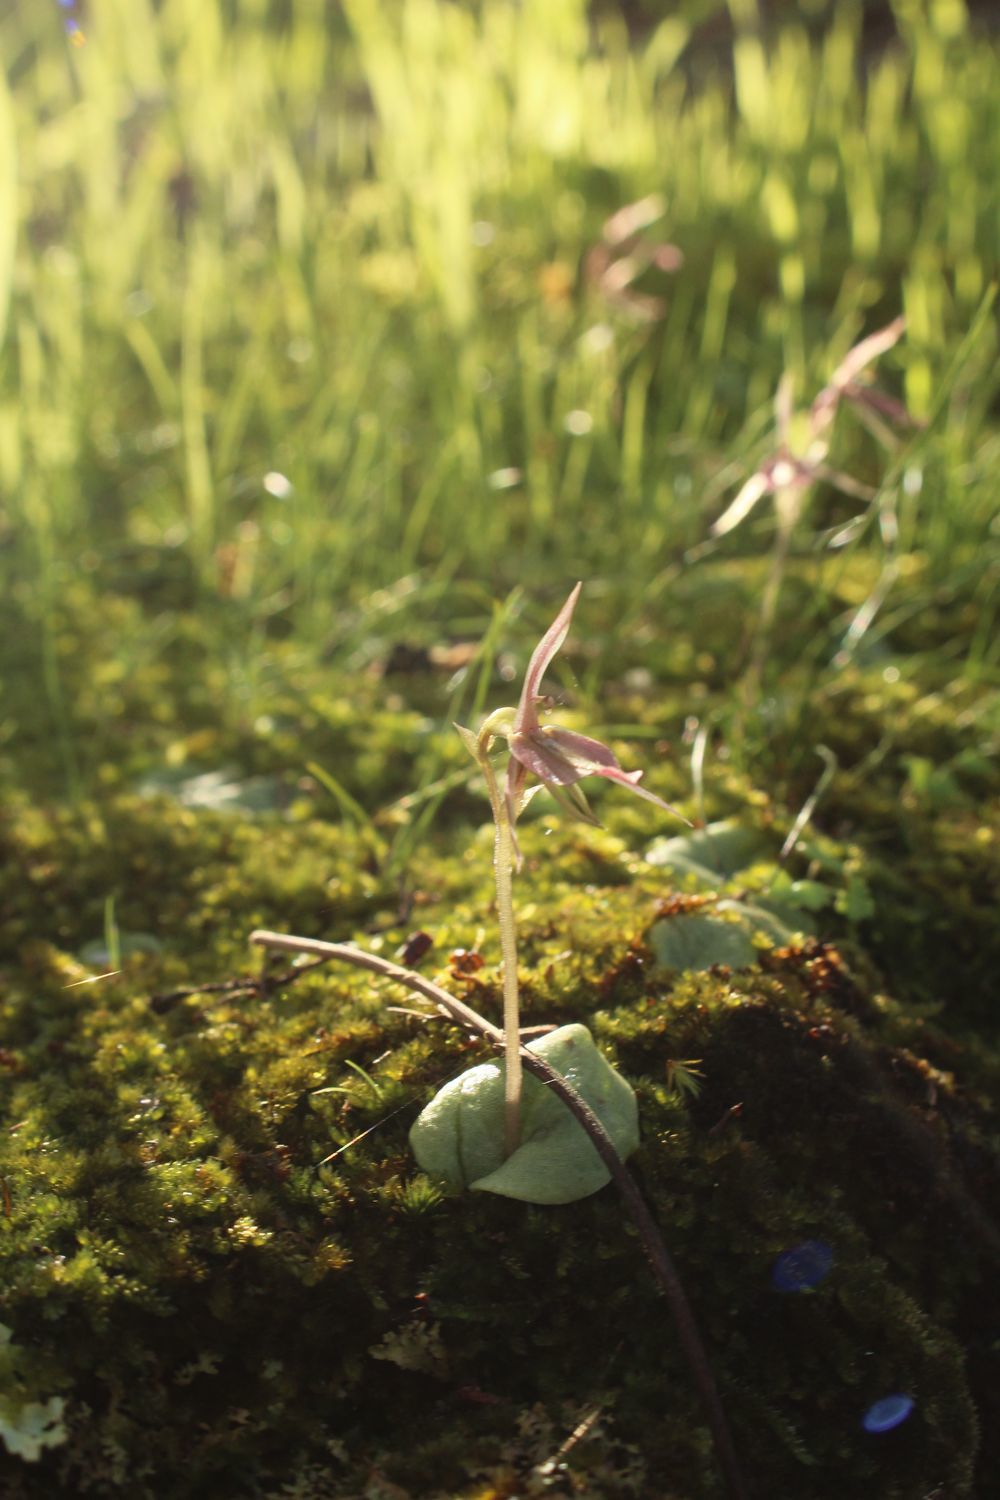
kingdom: Plantae
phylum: Tracheophyta
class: Liliopsida
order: Asparagales
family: Orchidaceae
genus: Cyrtostylis
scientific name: Cyrtostylis robusta
